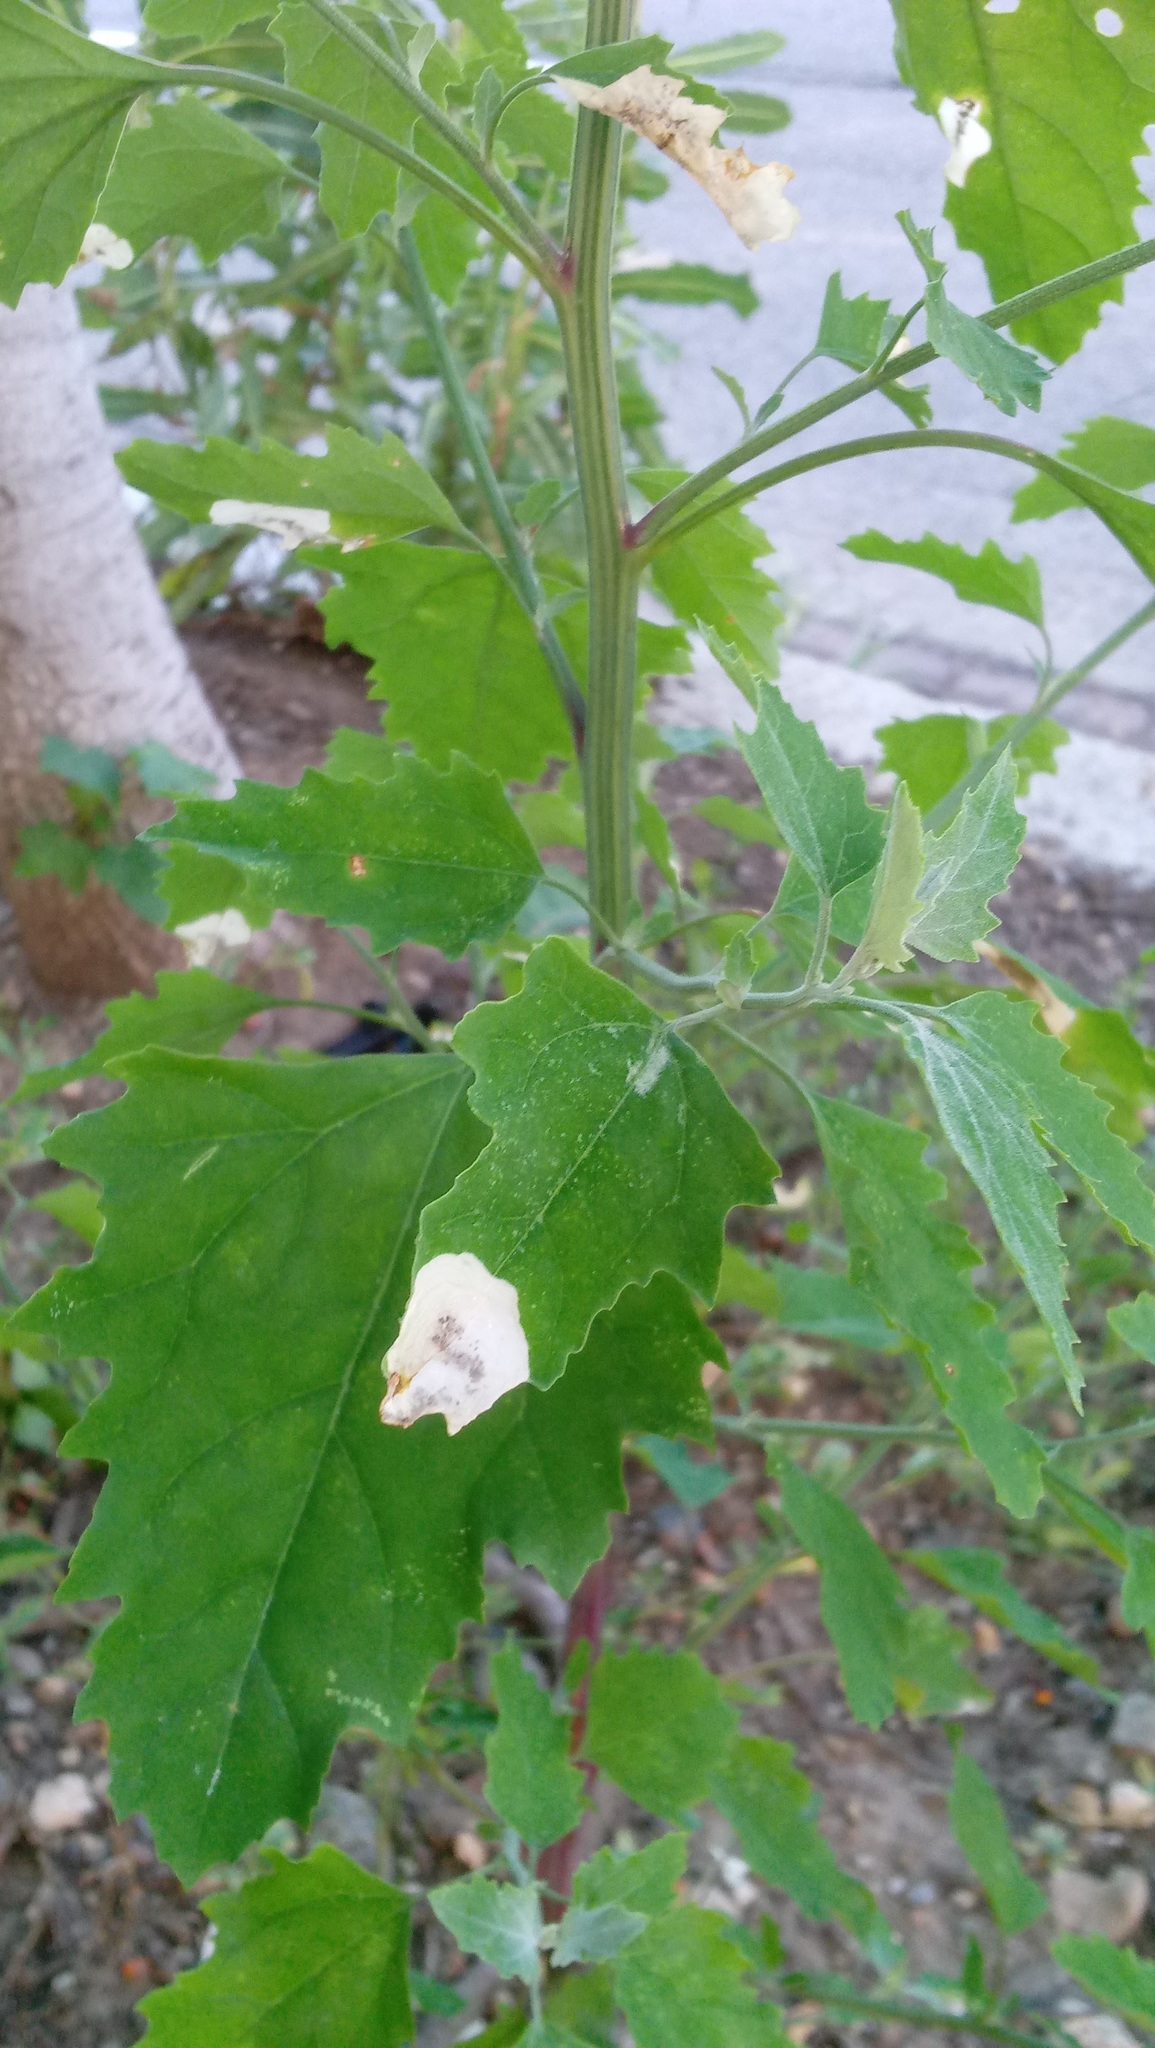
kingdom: Animalia
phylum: Arthropoda
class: Insecta
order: Lepidoptera
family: Gelechiidae
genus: Chrysoesthia
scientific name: Chrysoesthia sexguttella
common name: Moth
